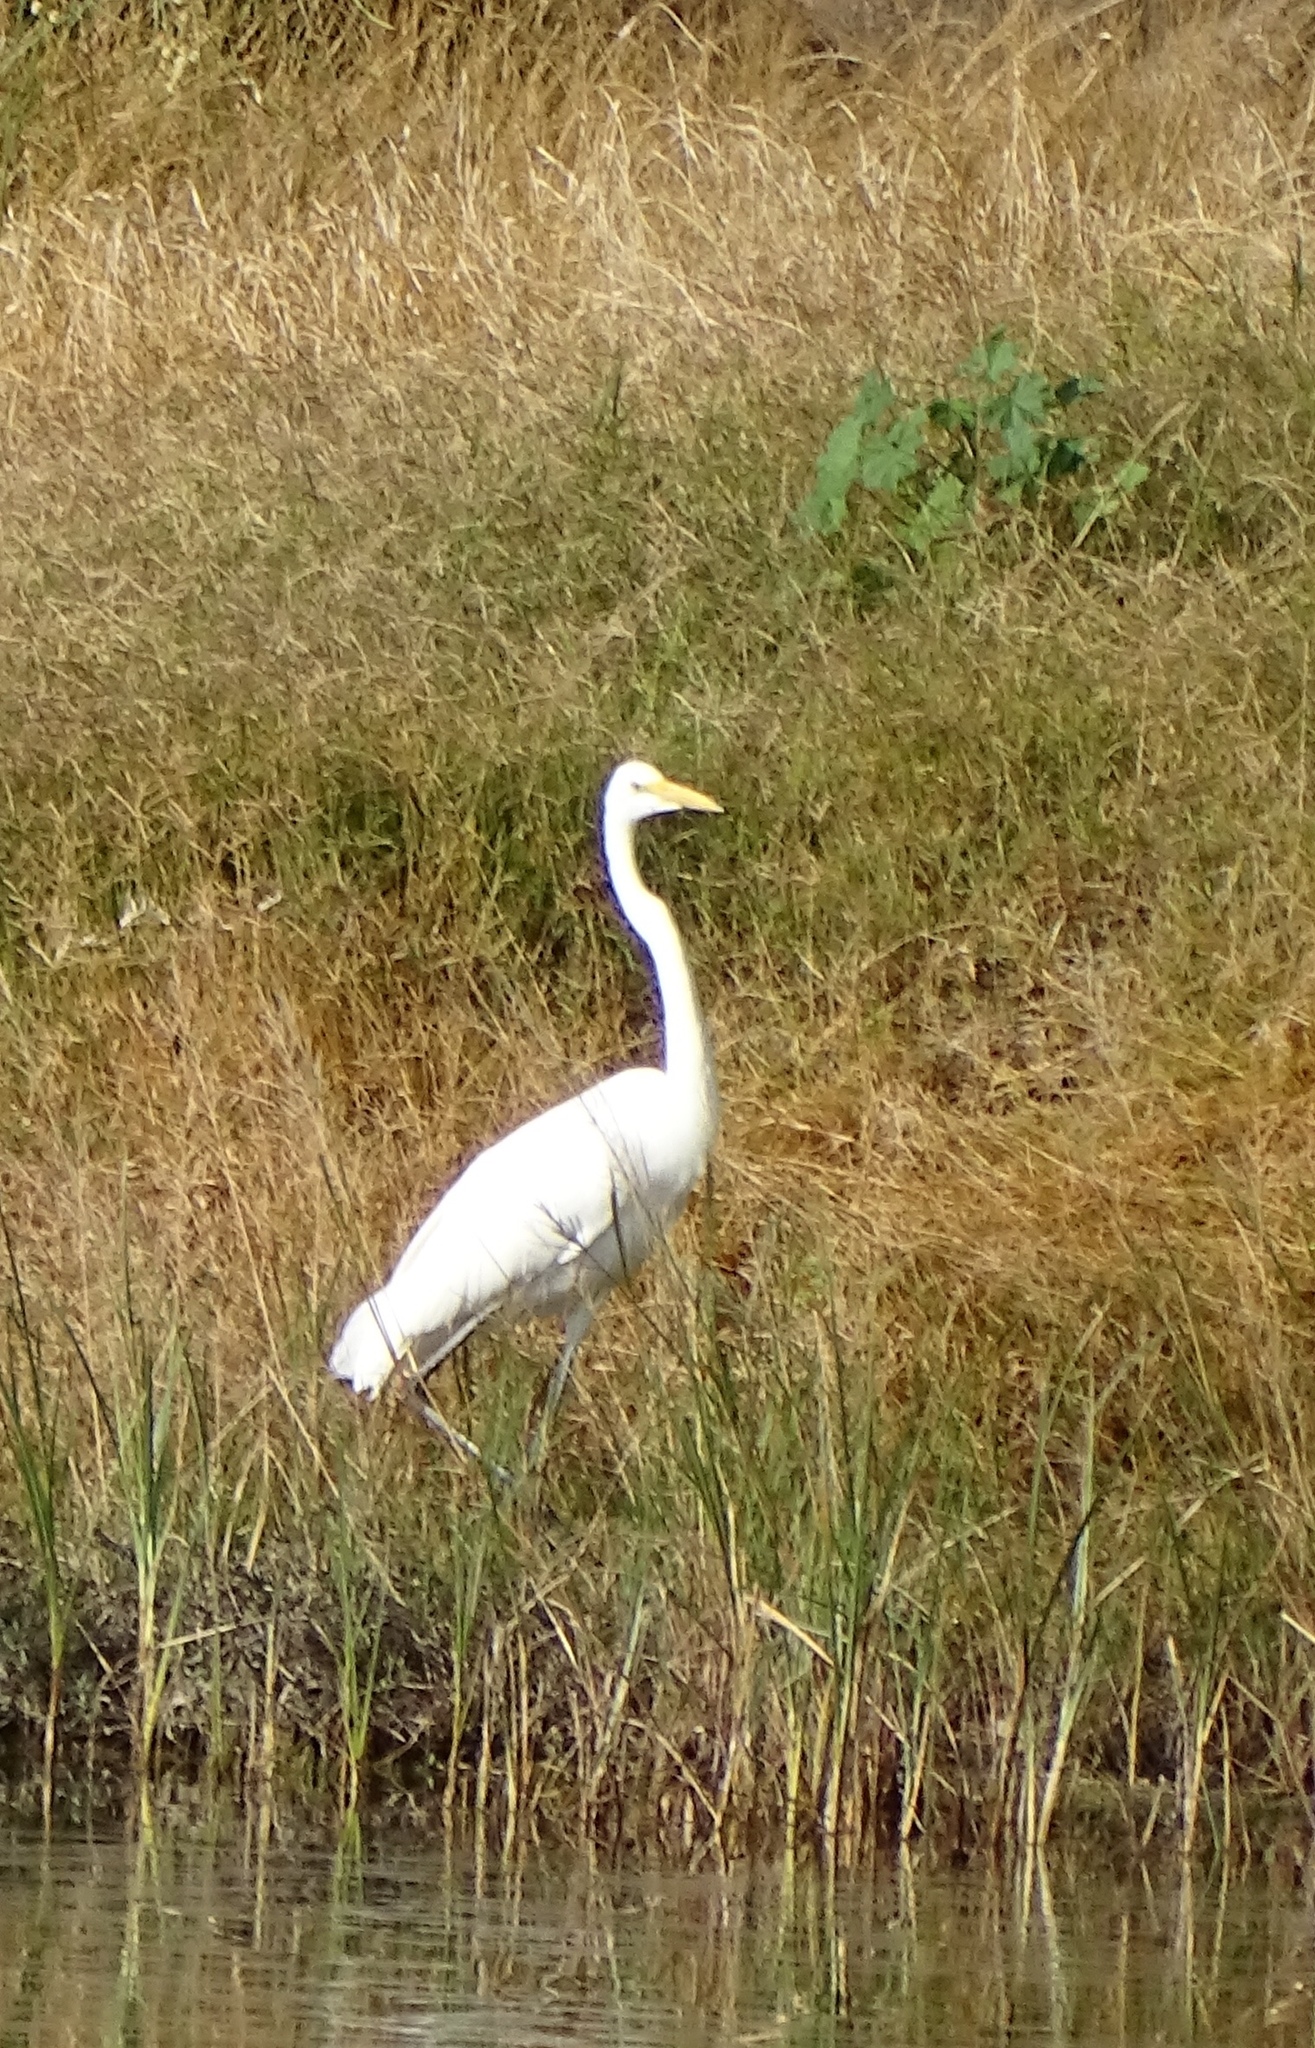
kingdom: Animalia
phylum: Chordata
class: Aves
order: Pelecaniformes
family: Ardeidae
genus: Ardea
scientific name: Ardea alba
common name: Great egret
